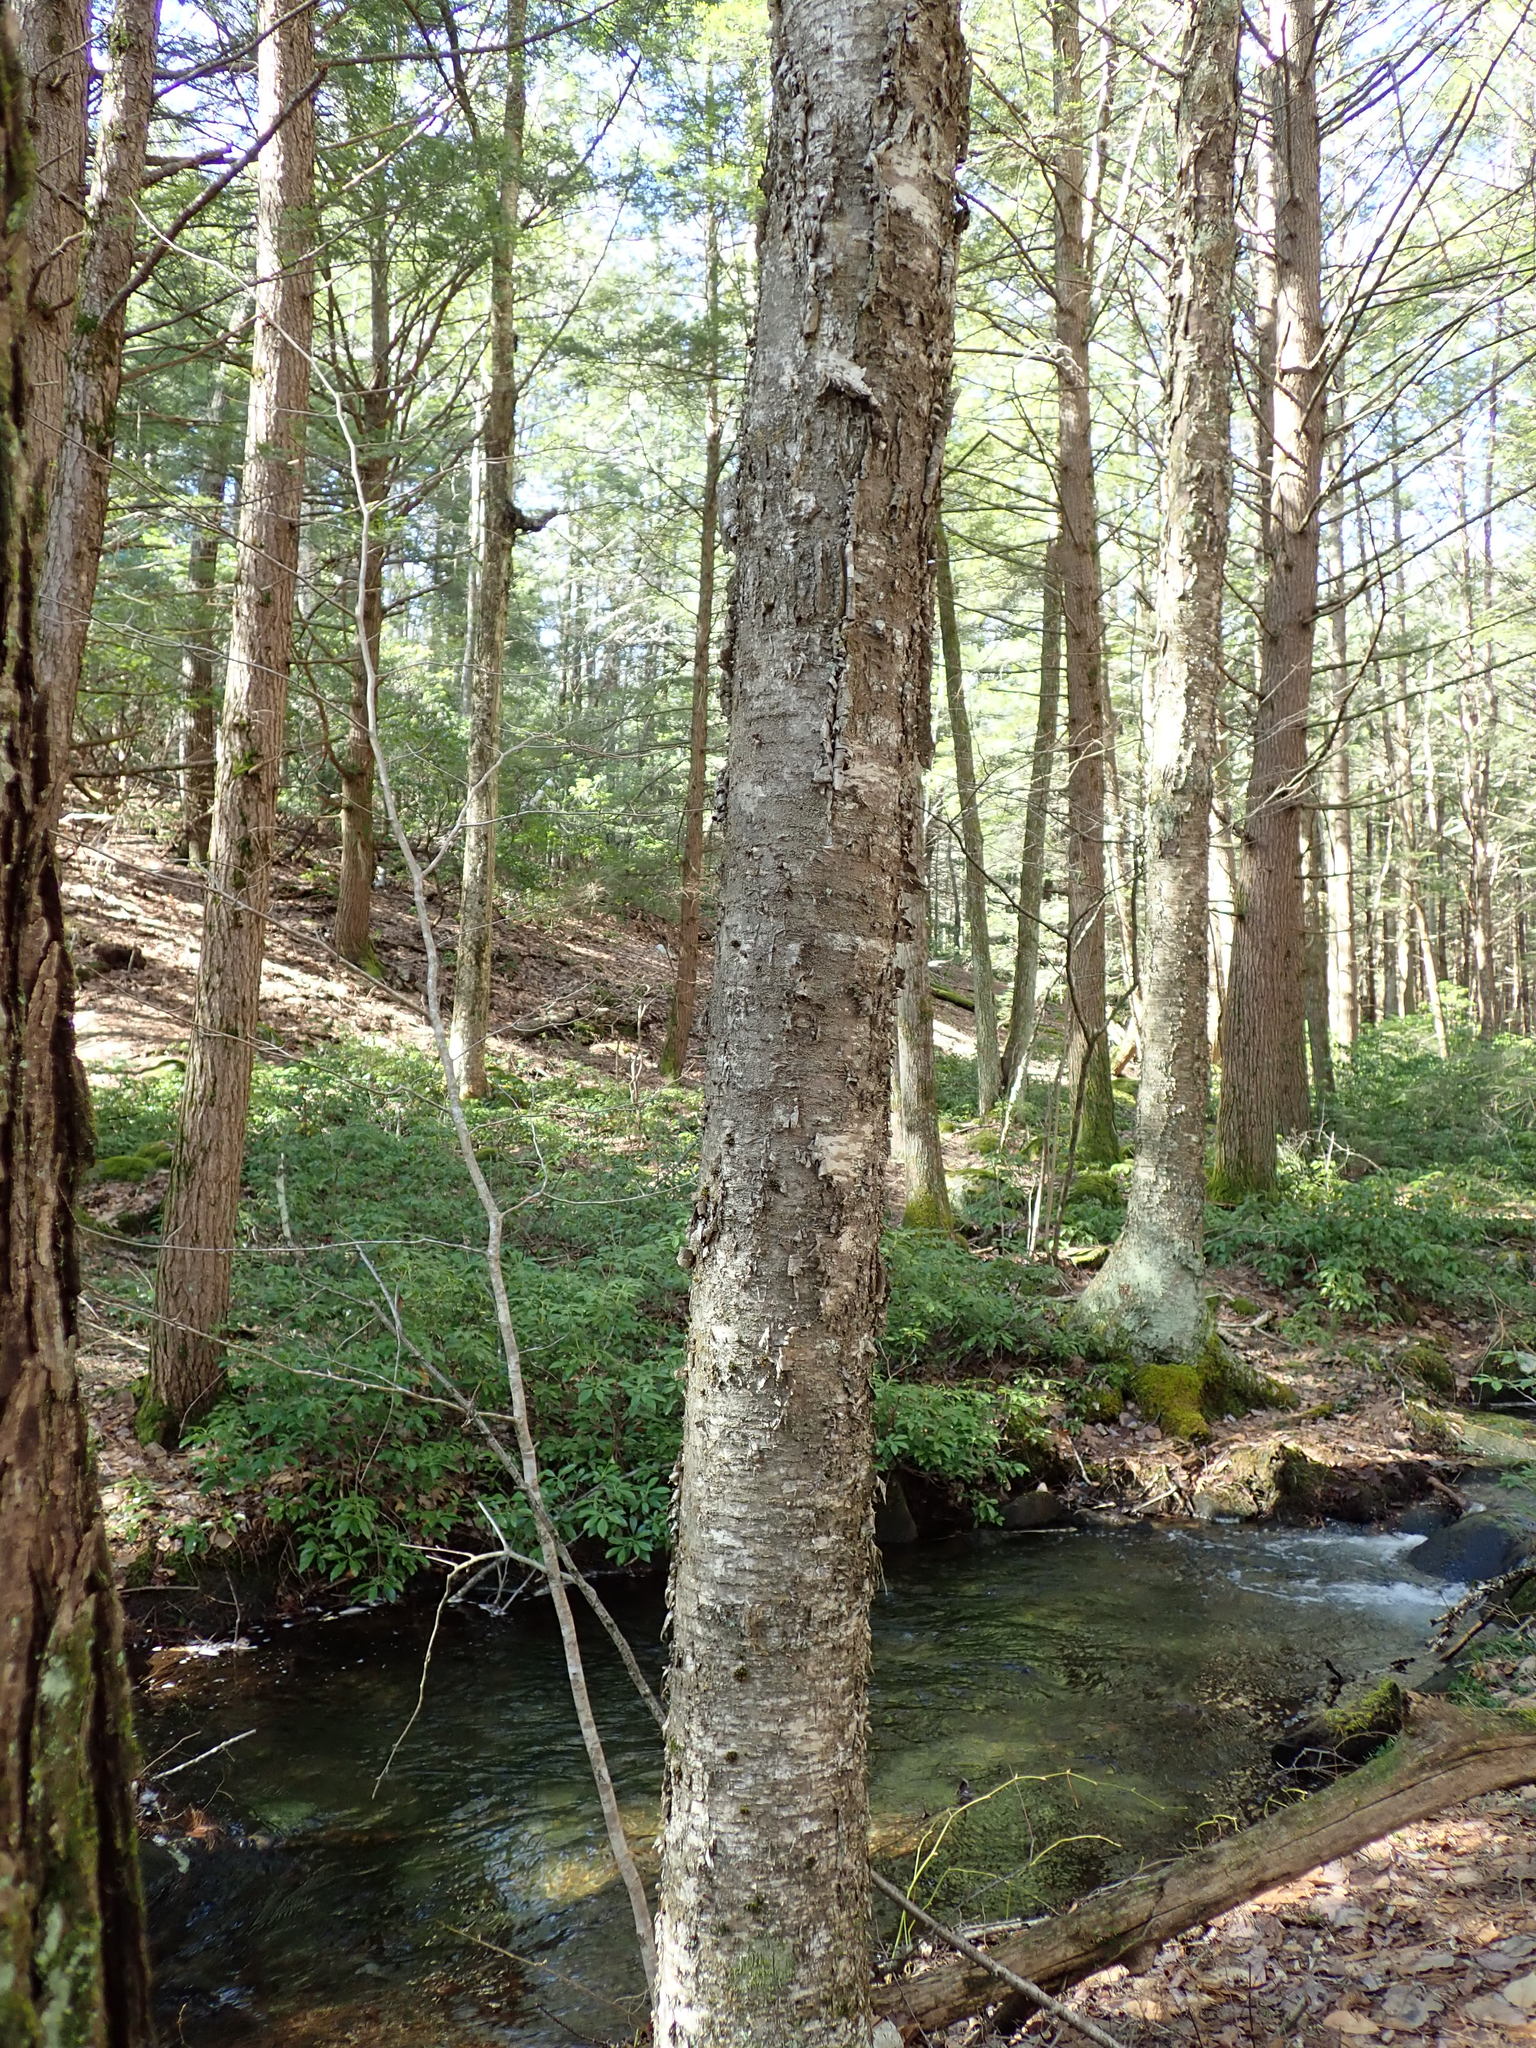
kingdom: Plantae
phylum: Tracheophyta
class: Magnoliopsida
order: Fagales
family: Betulaceae
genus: Betula
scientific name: Betula alleghaniensis
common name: Yellow birch
